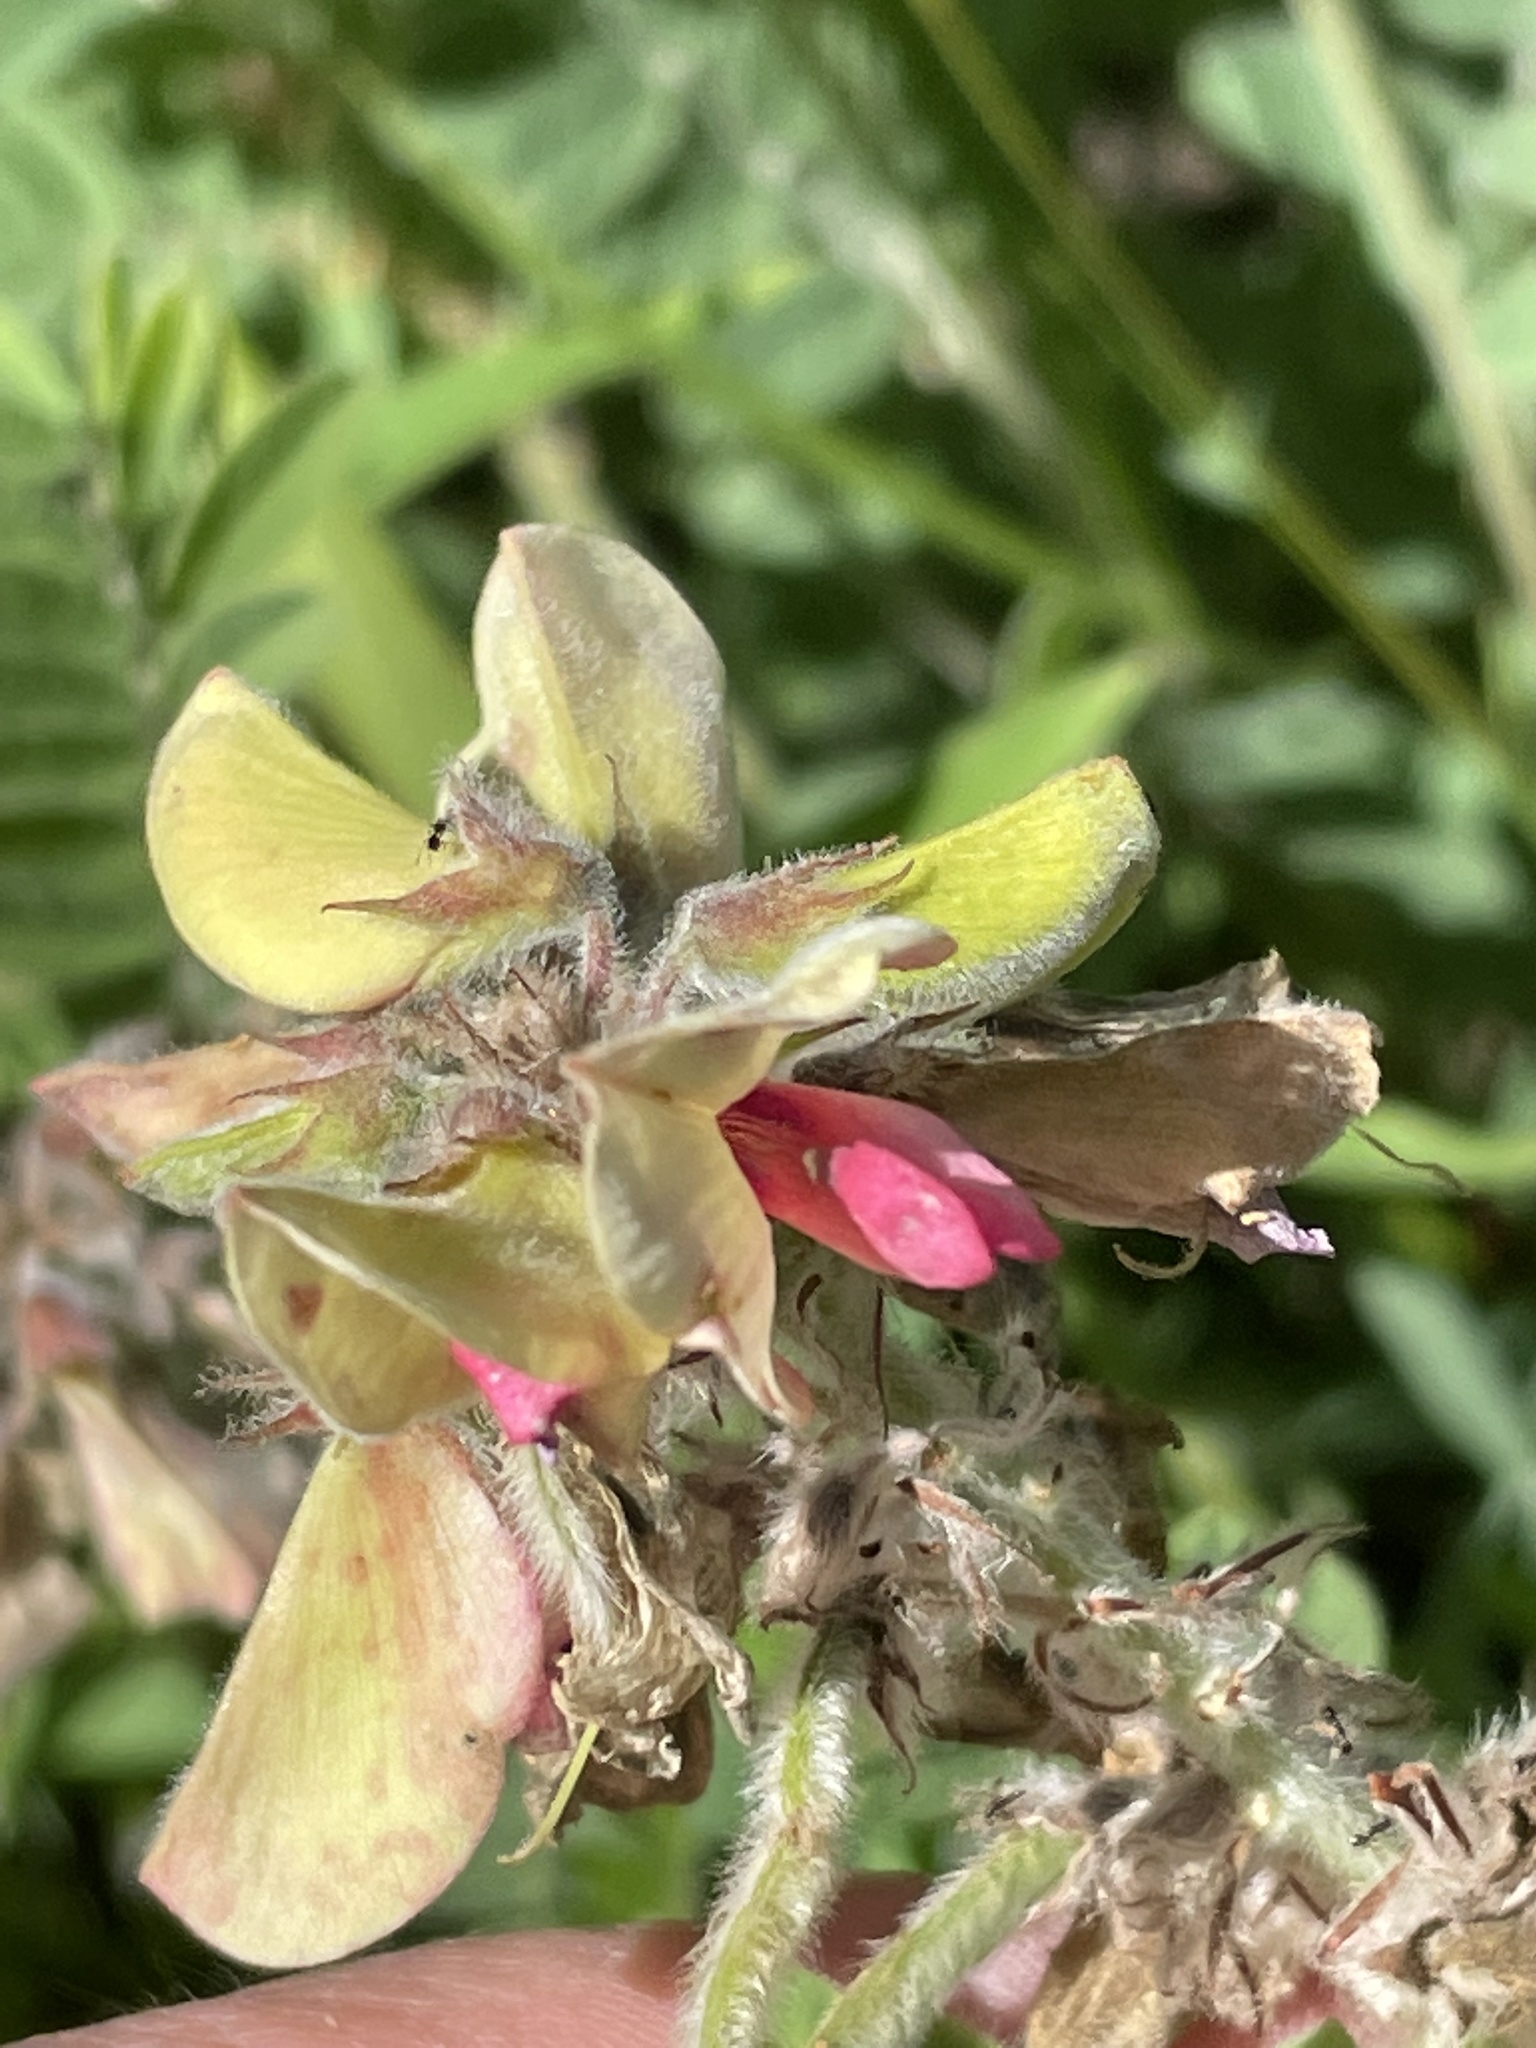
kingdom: Plantae
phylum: Tracheophyta
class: Magnoliopsida
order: Fabales
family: Fabaceae
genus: Tephrosia
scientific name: Tephrosia virginiana
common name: Rabbit-pea
